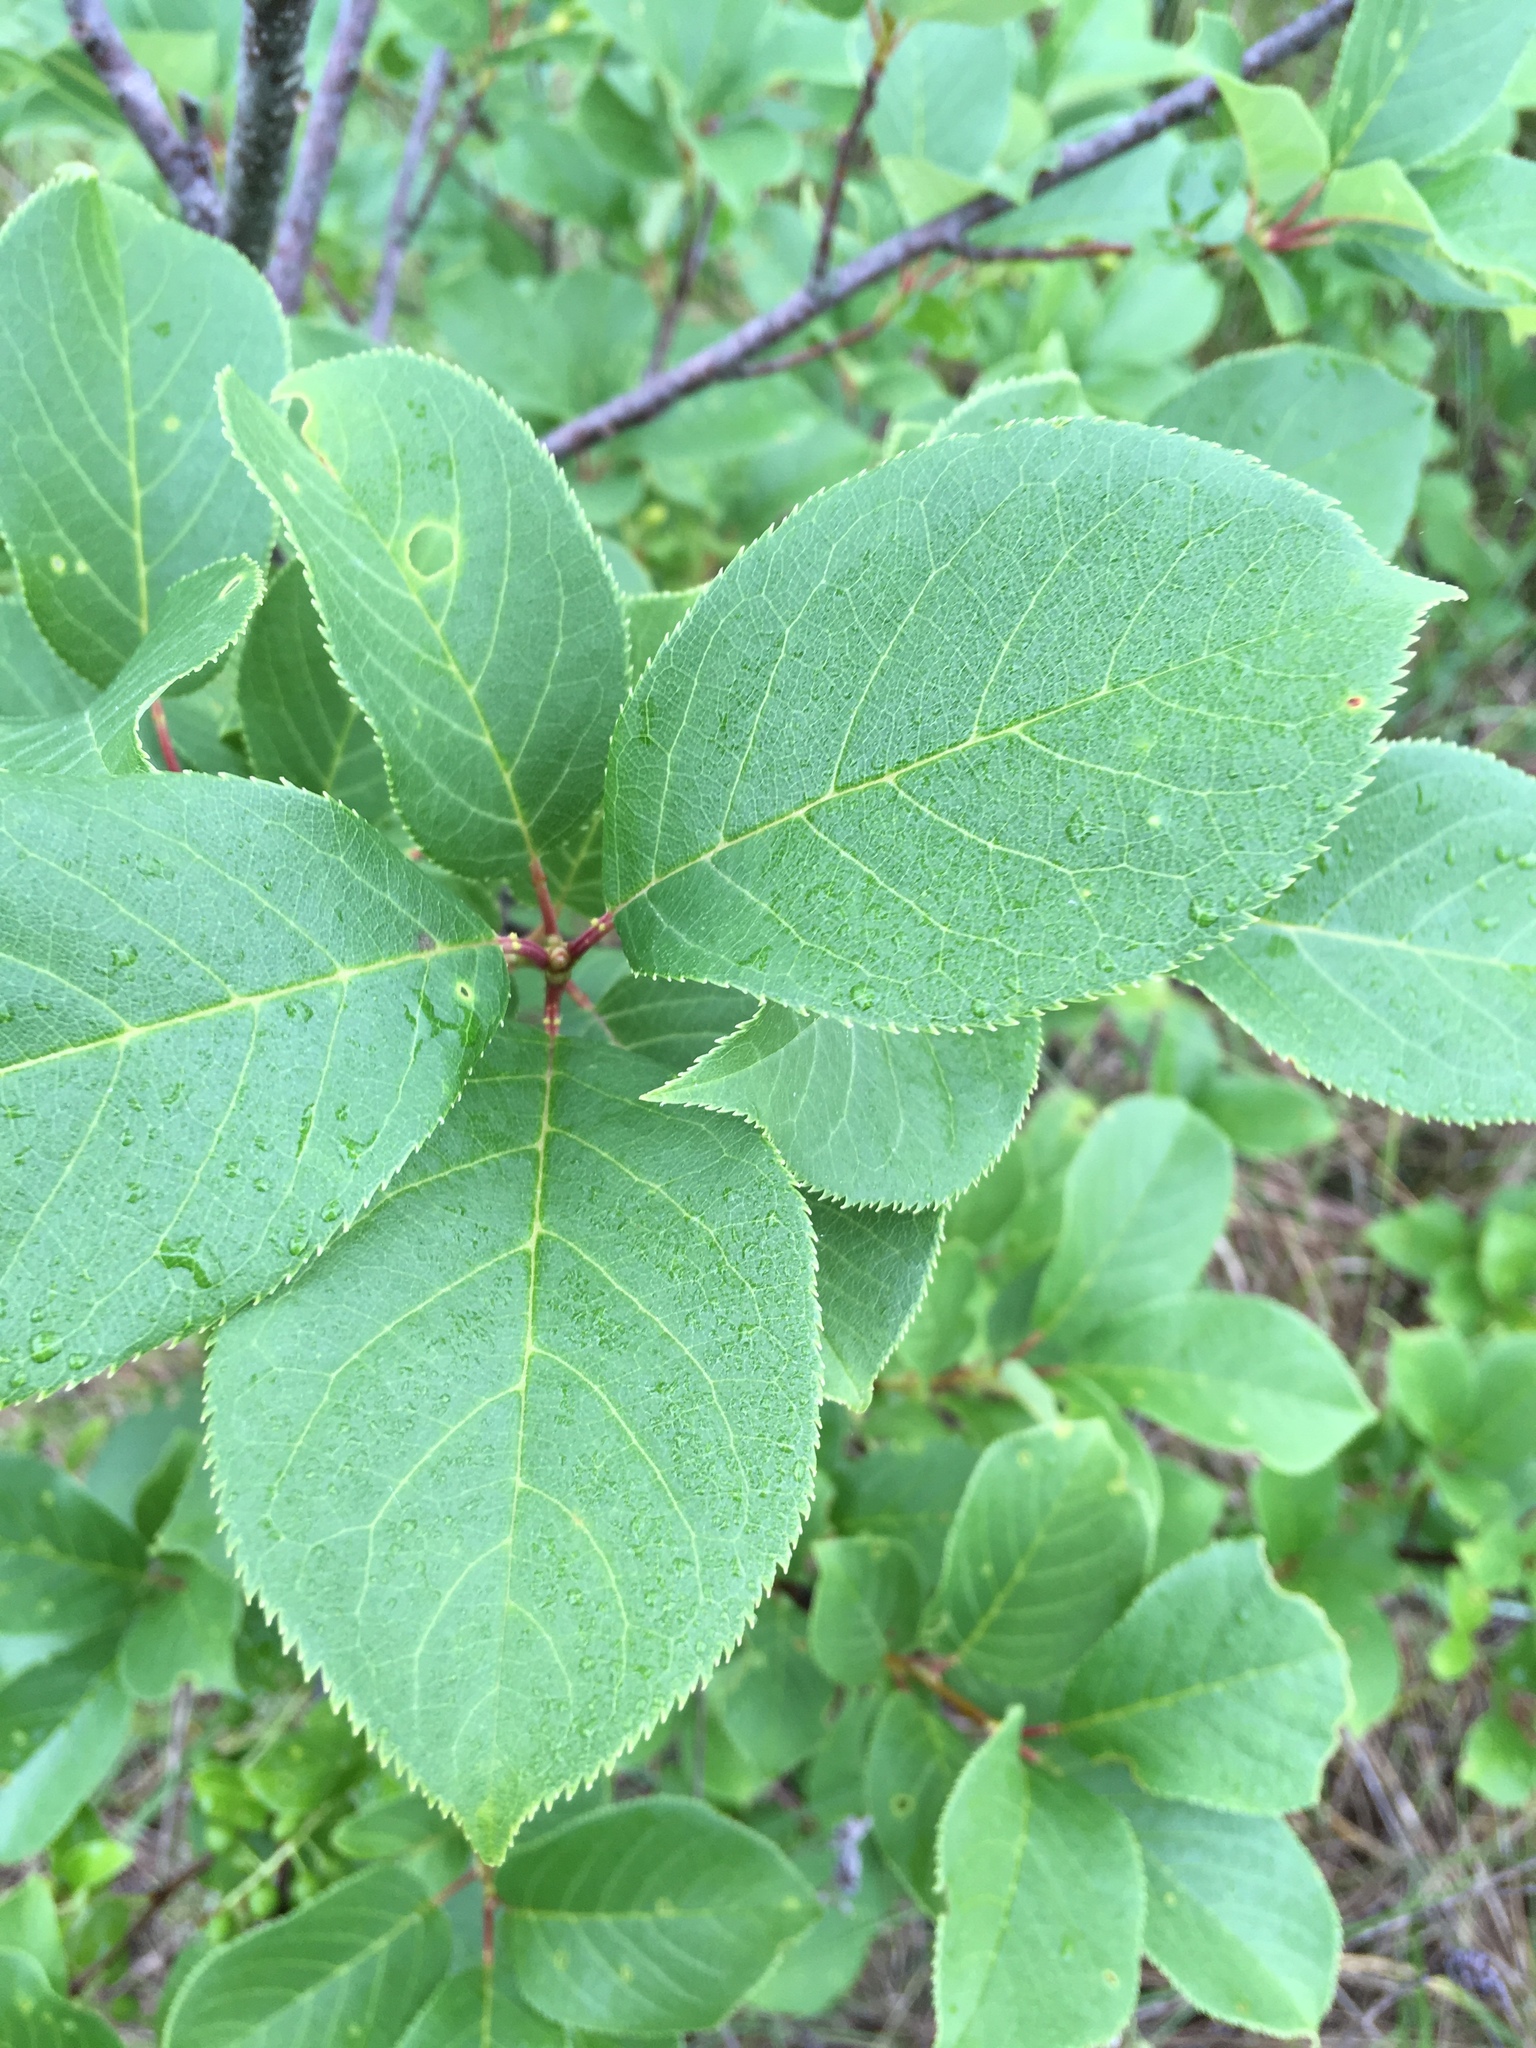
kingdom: Plantae
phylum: Tracheophyta
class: Magnoliopsida
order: Rosales
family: Rosaceae
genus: Prunus
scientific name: Prunus virginiana
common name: Chokecherry
